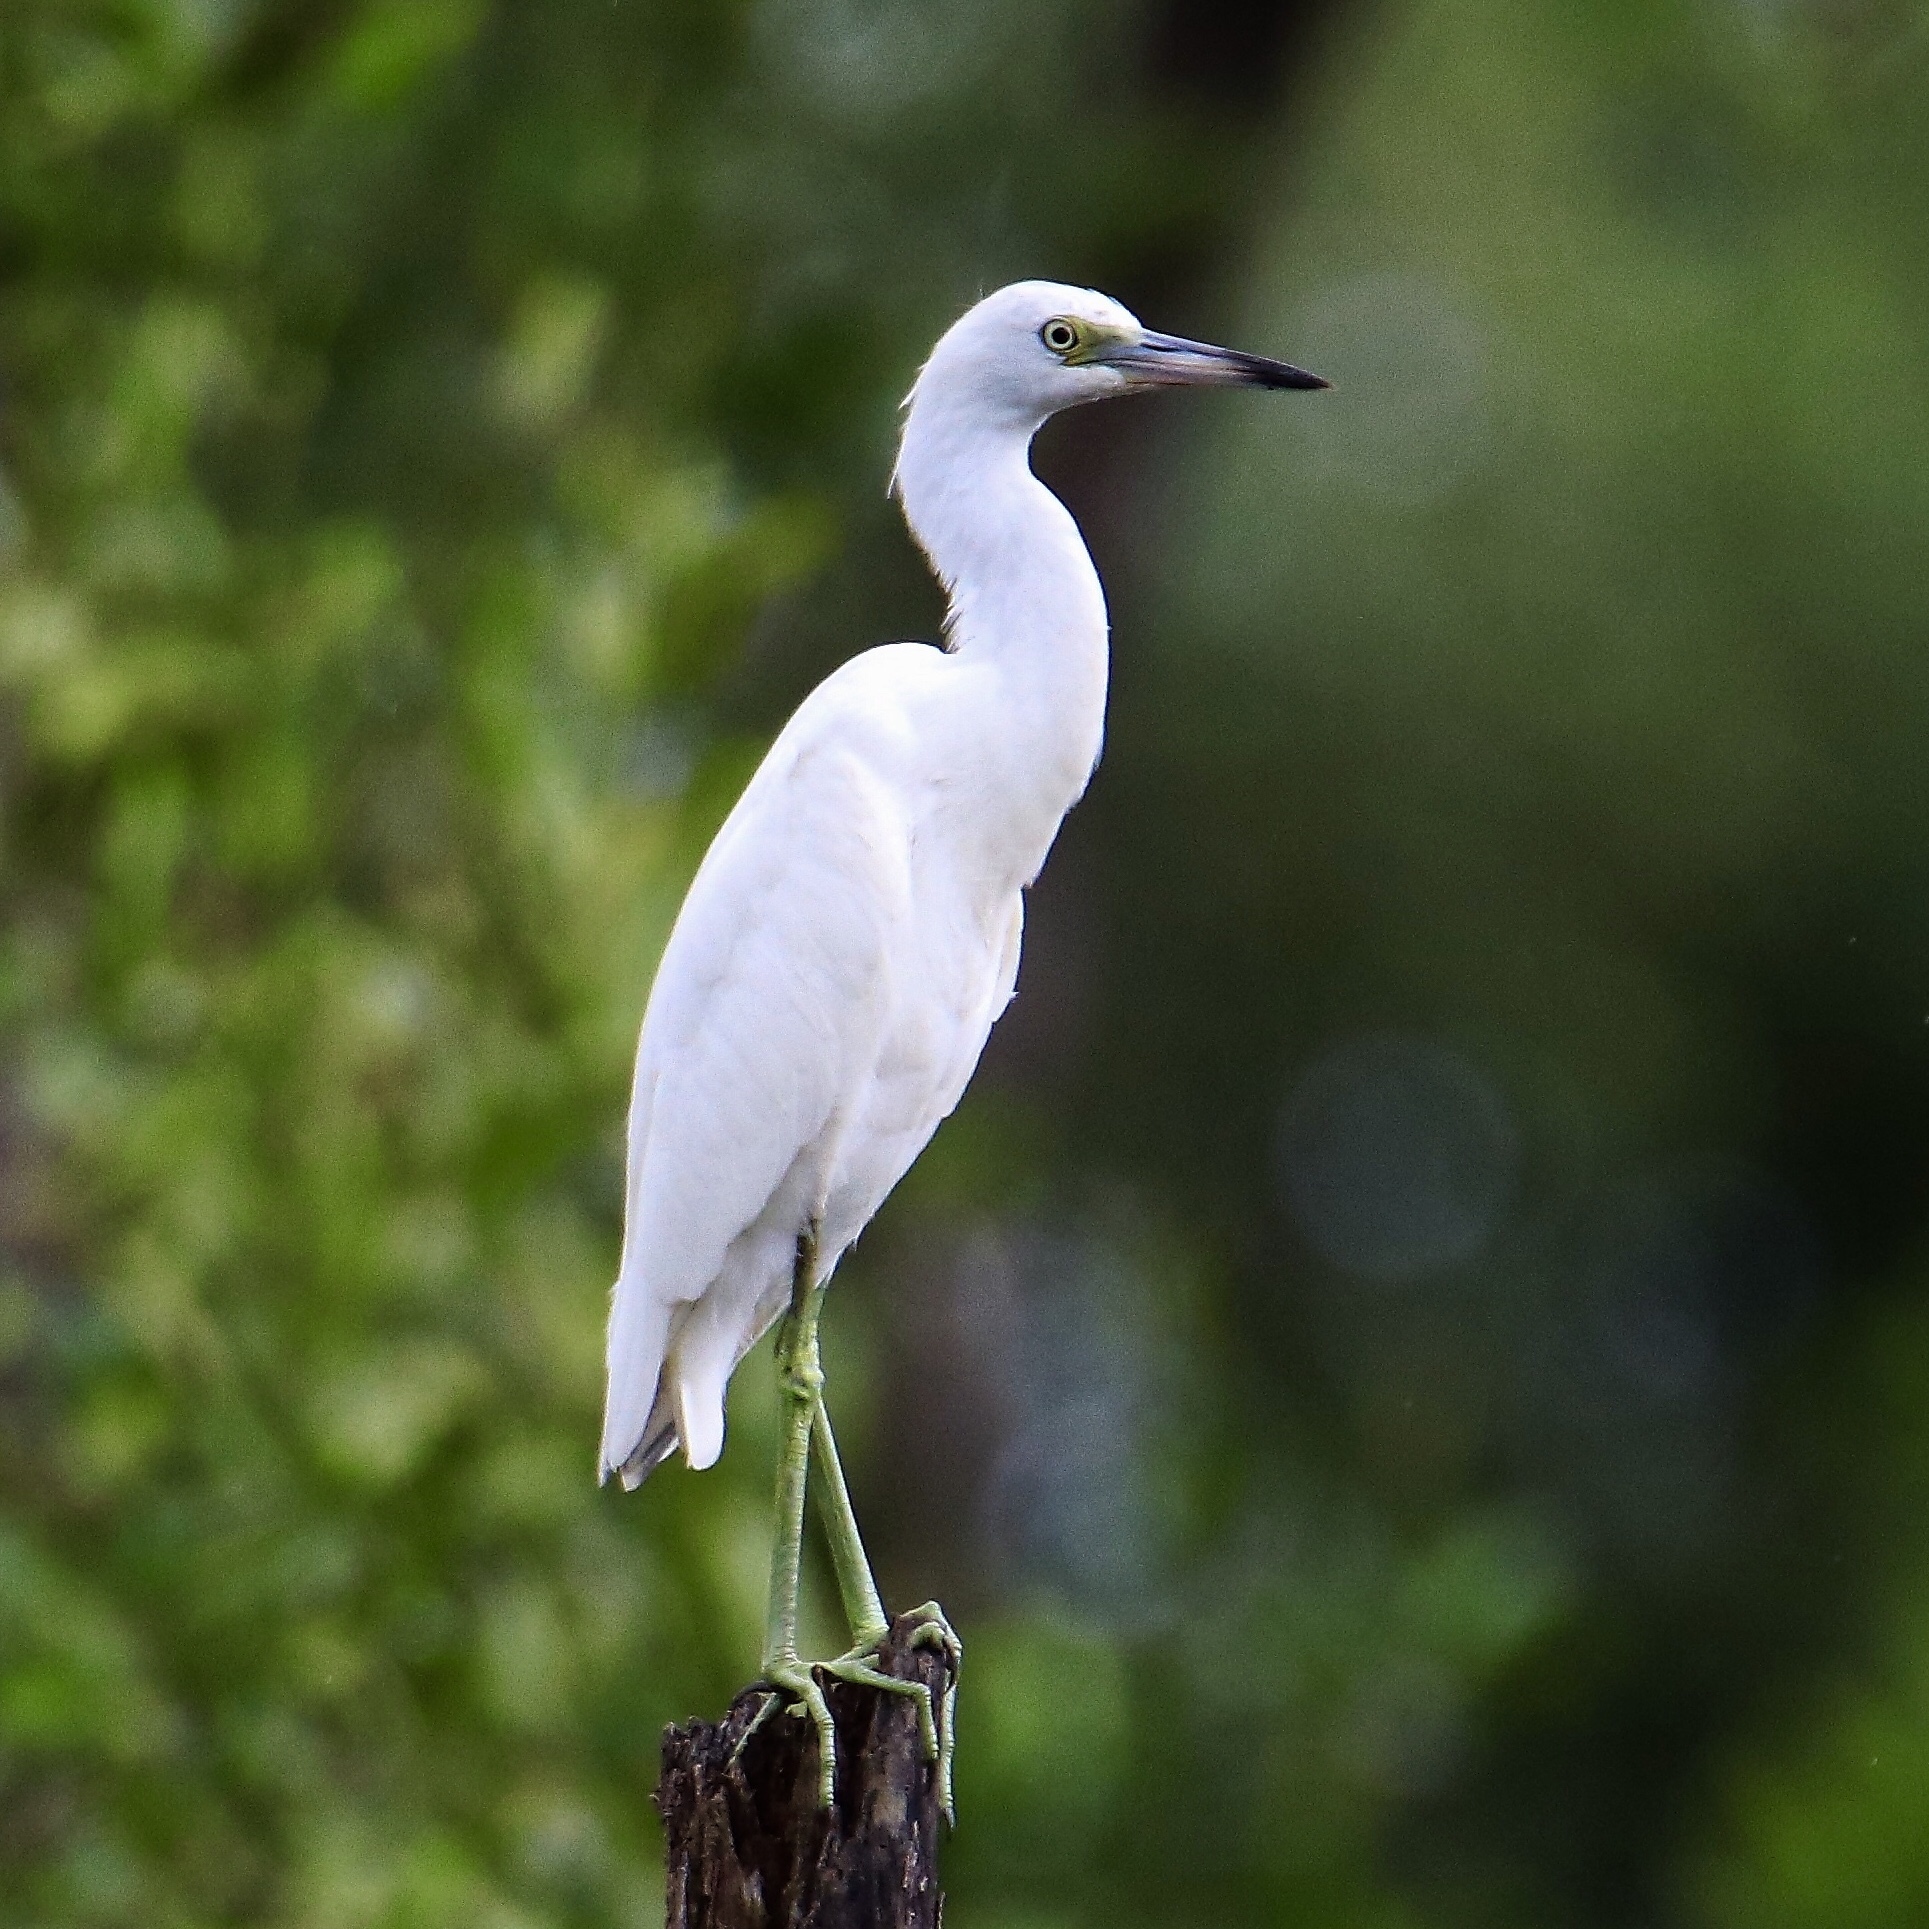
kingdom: Animalia
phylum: Chordata
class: Aves
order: Pelecaniformes
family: Ardeidae
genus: Egretta
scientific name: Egretta caerulea
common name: Little blue heron
